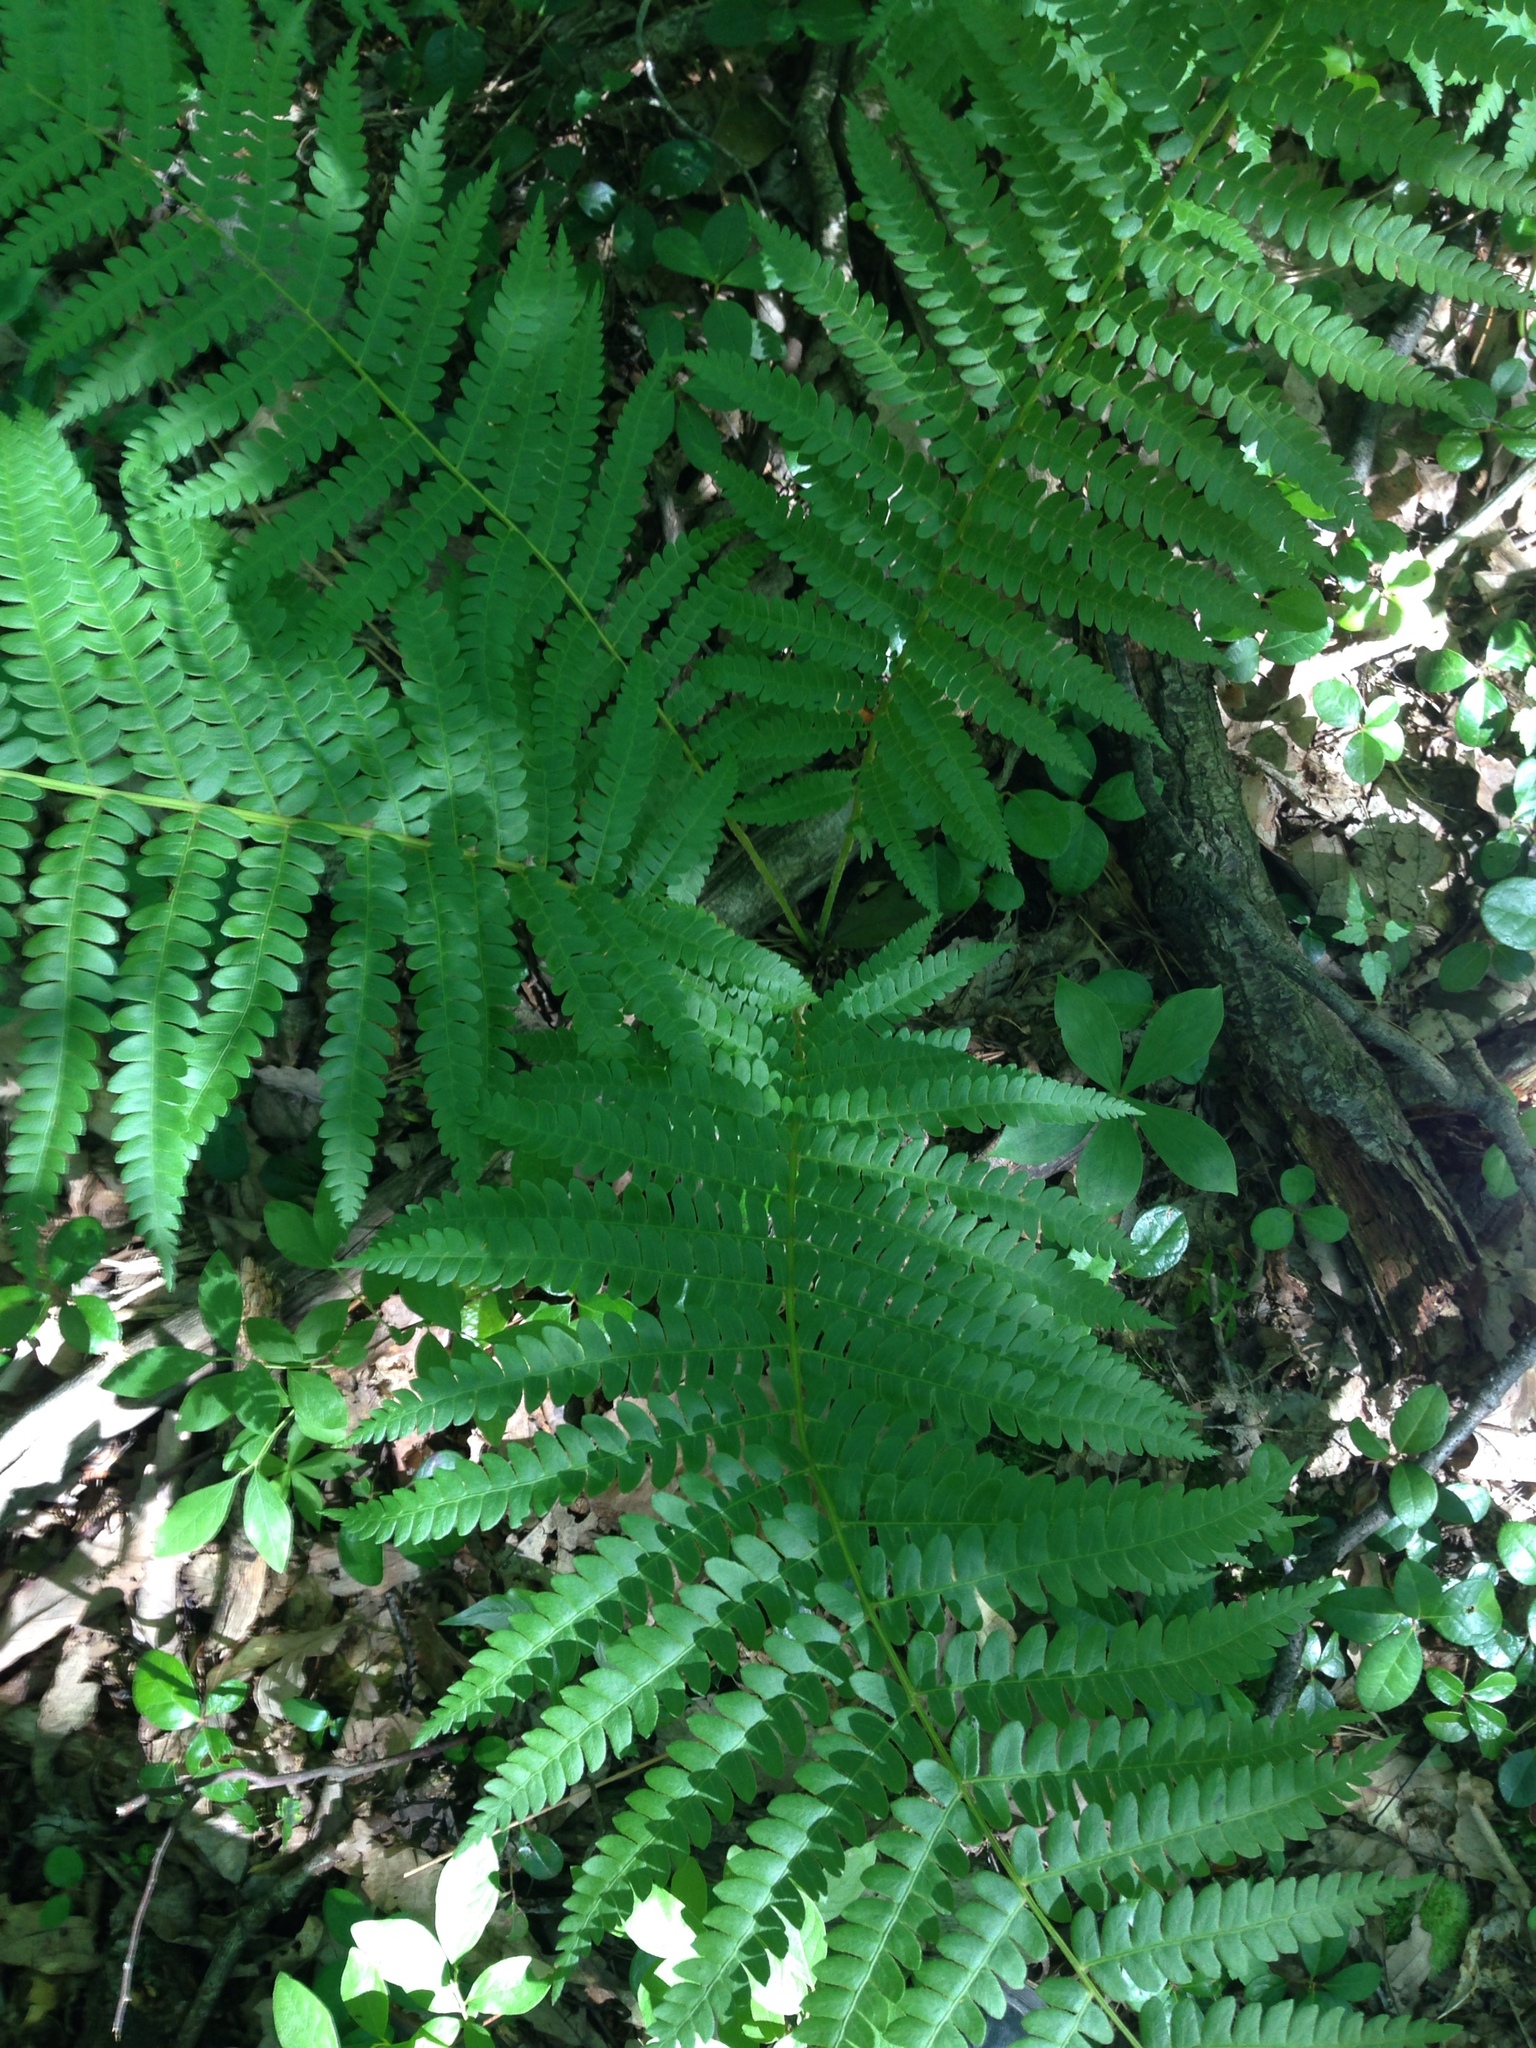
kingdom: Plantae
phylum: Tracheophyta
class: Polypodiopsida
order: Osmundales
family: Osmundaceae
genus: Osmundastrum
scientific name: Osmundastrum cinnamomeum
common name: Cinnamon fern
